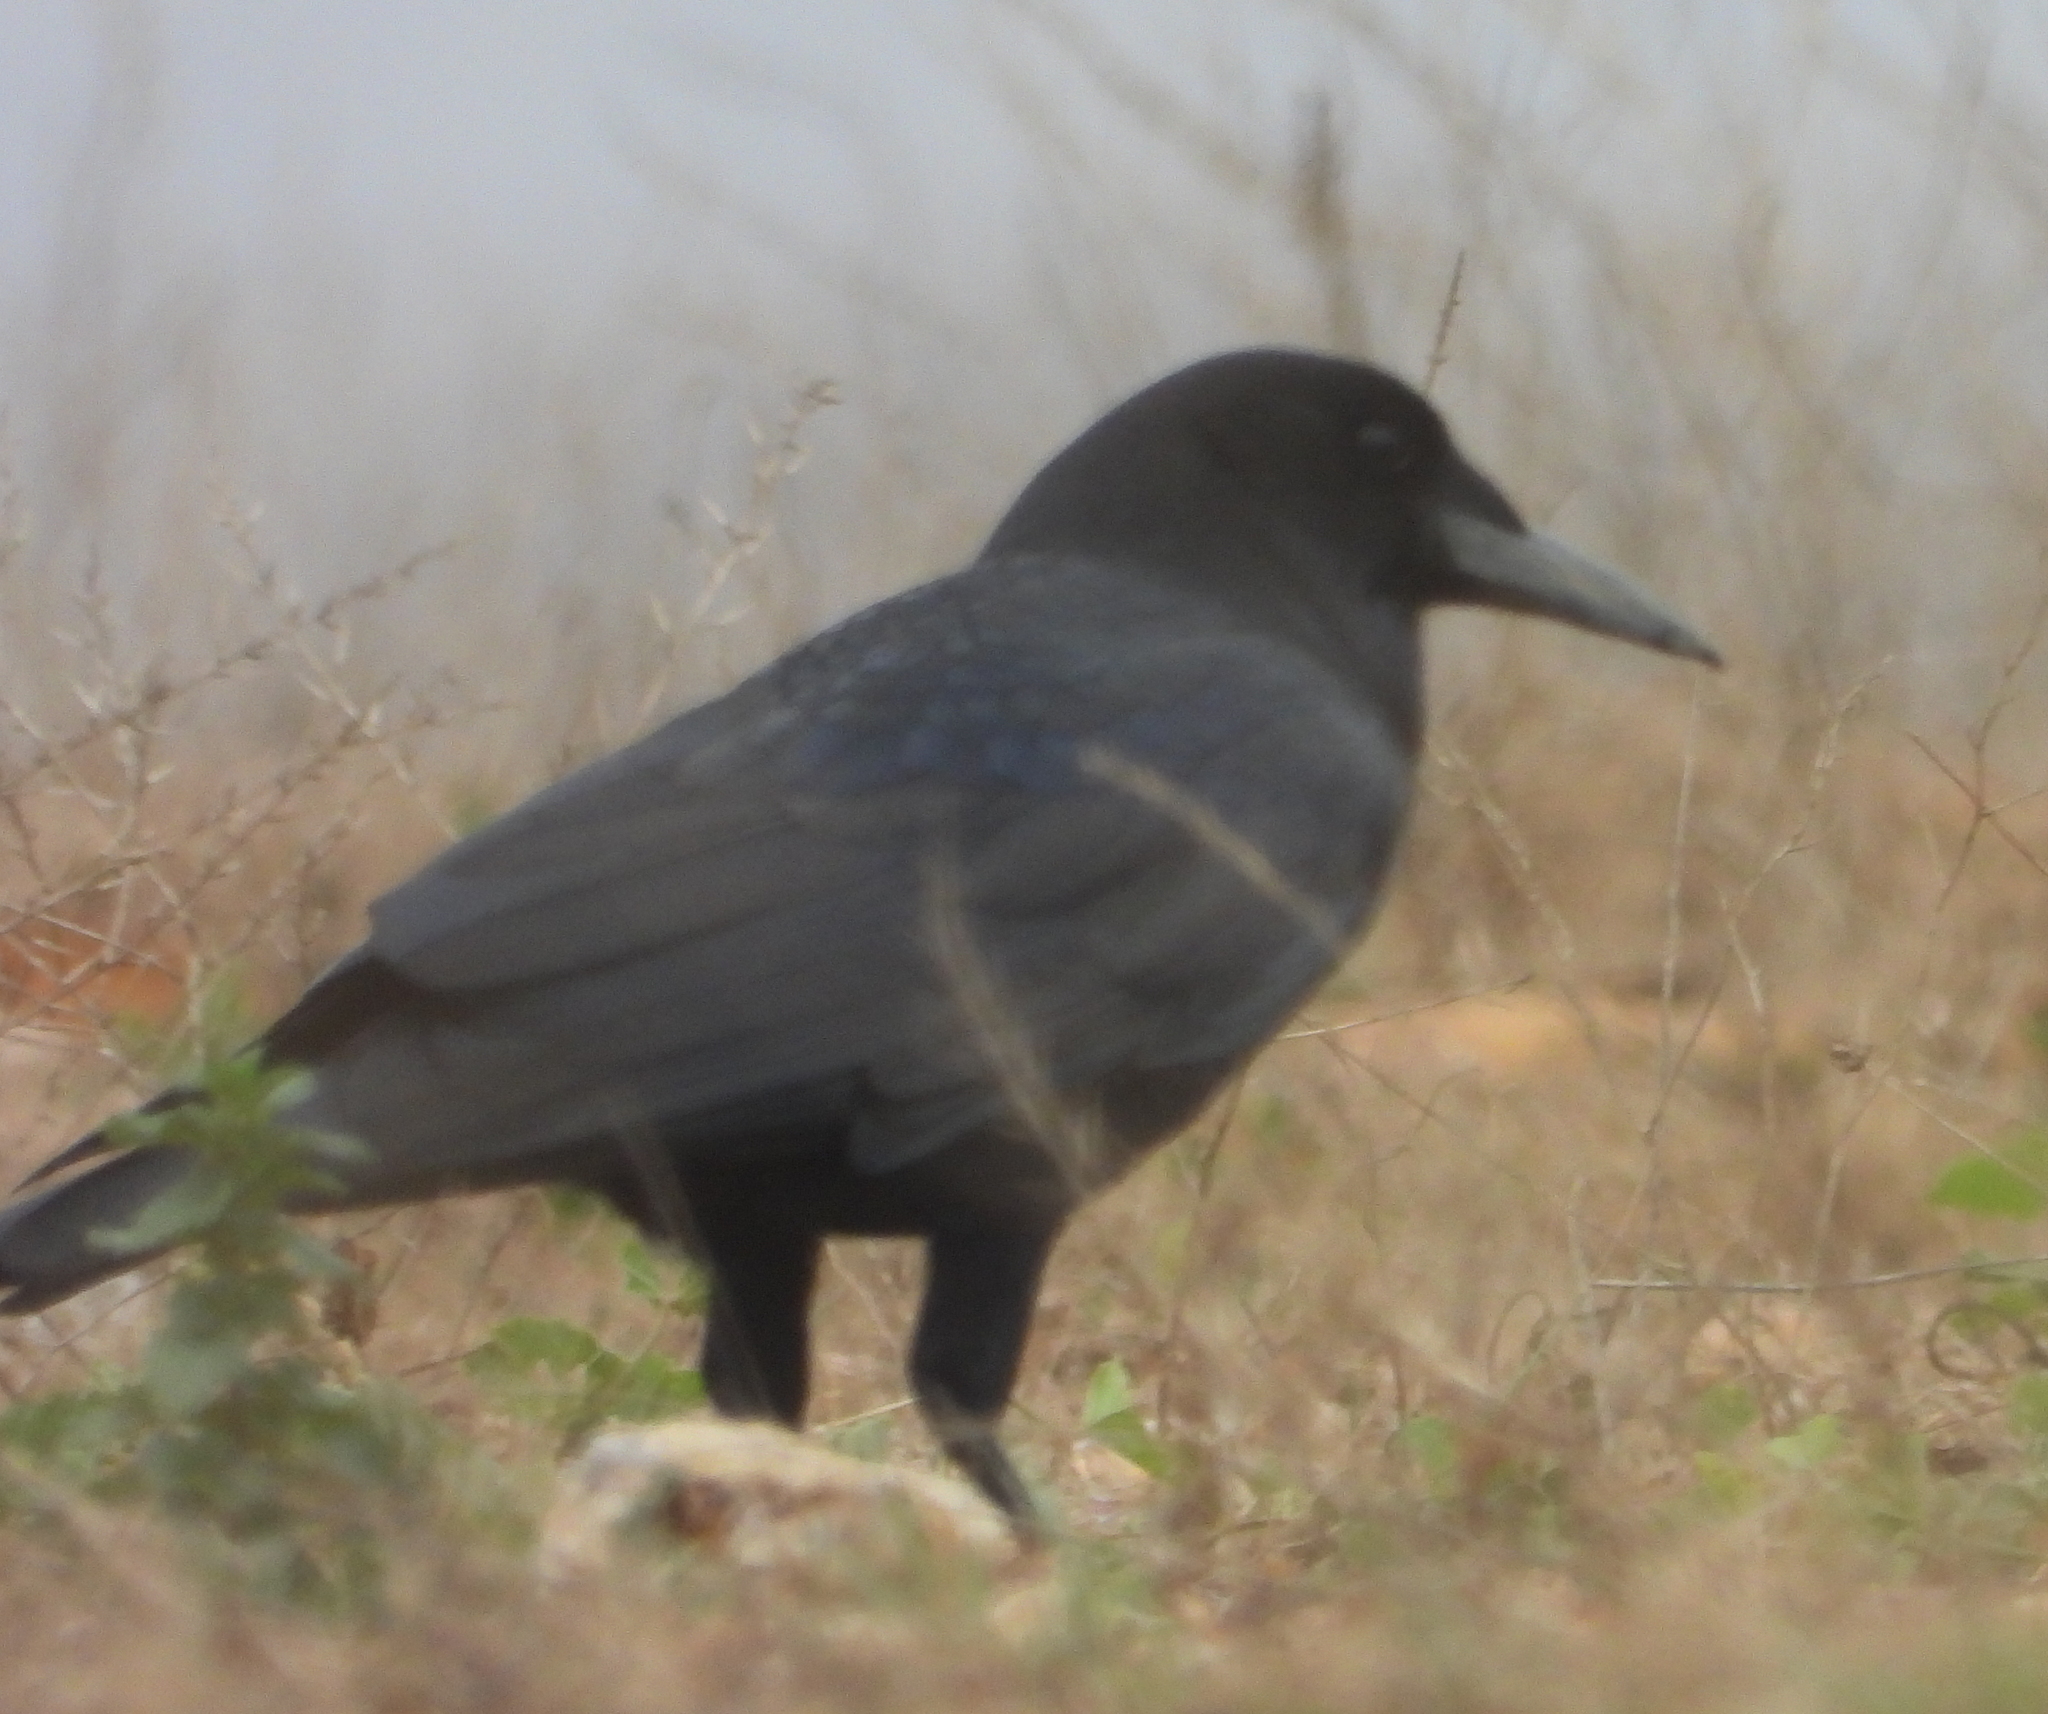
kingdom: Animalia
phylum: Chordata
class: Aves
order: Passeriformes
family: Corvidae
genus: Corvus
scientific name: Corvus capensis
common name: Cape crow
